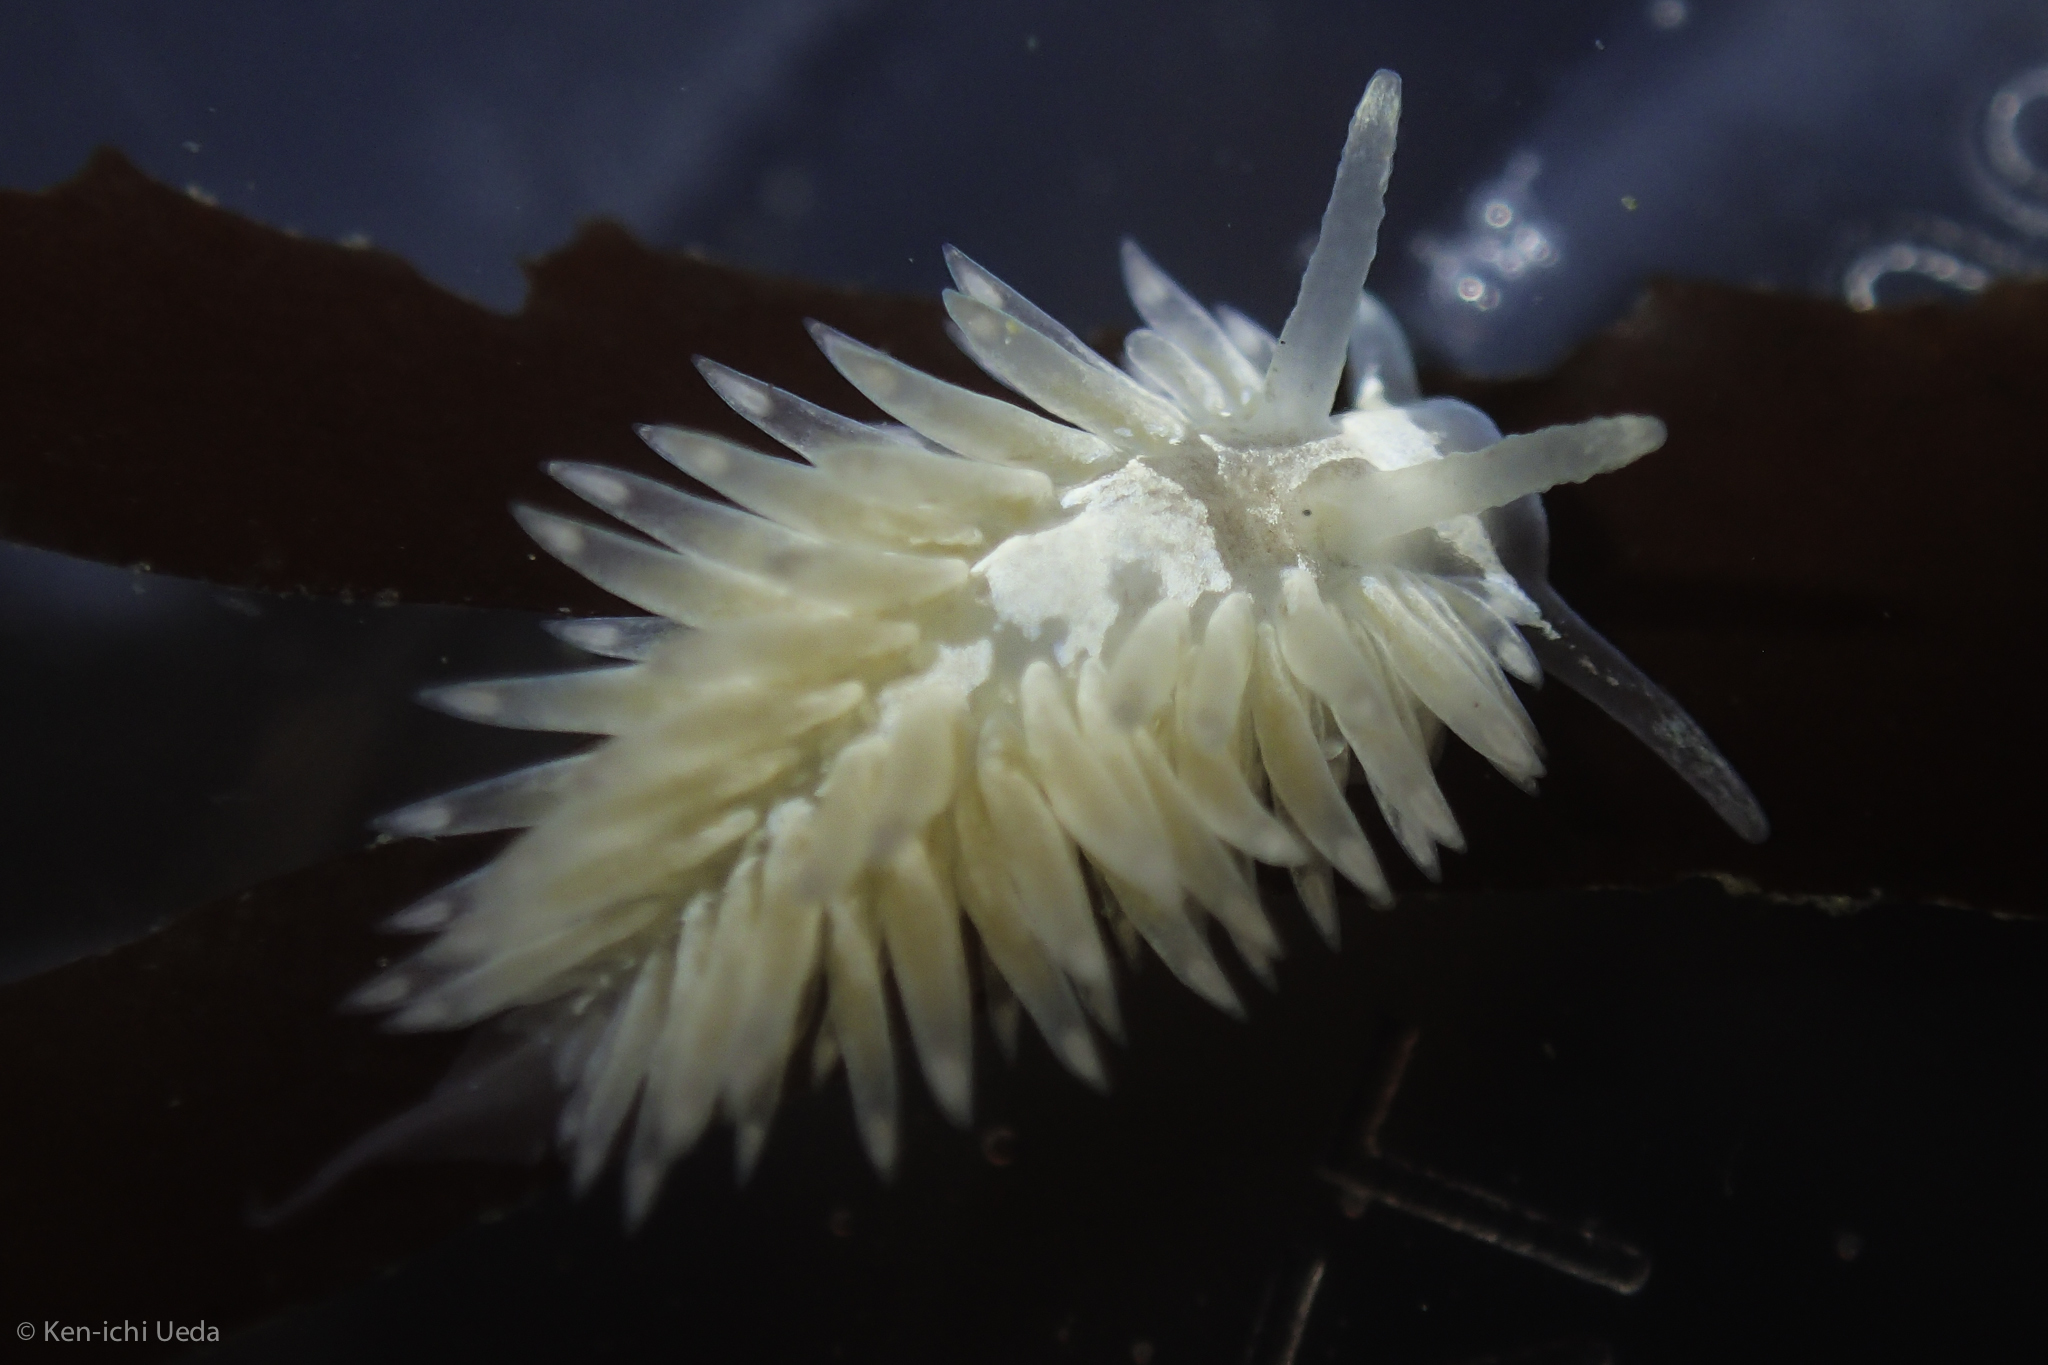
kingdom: Animalia
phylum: Mollusca
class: Gastropoda
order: Nudibranchia
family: Aeolidiidae
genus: Aeolidia
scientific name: Aeolidia loui
